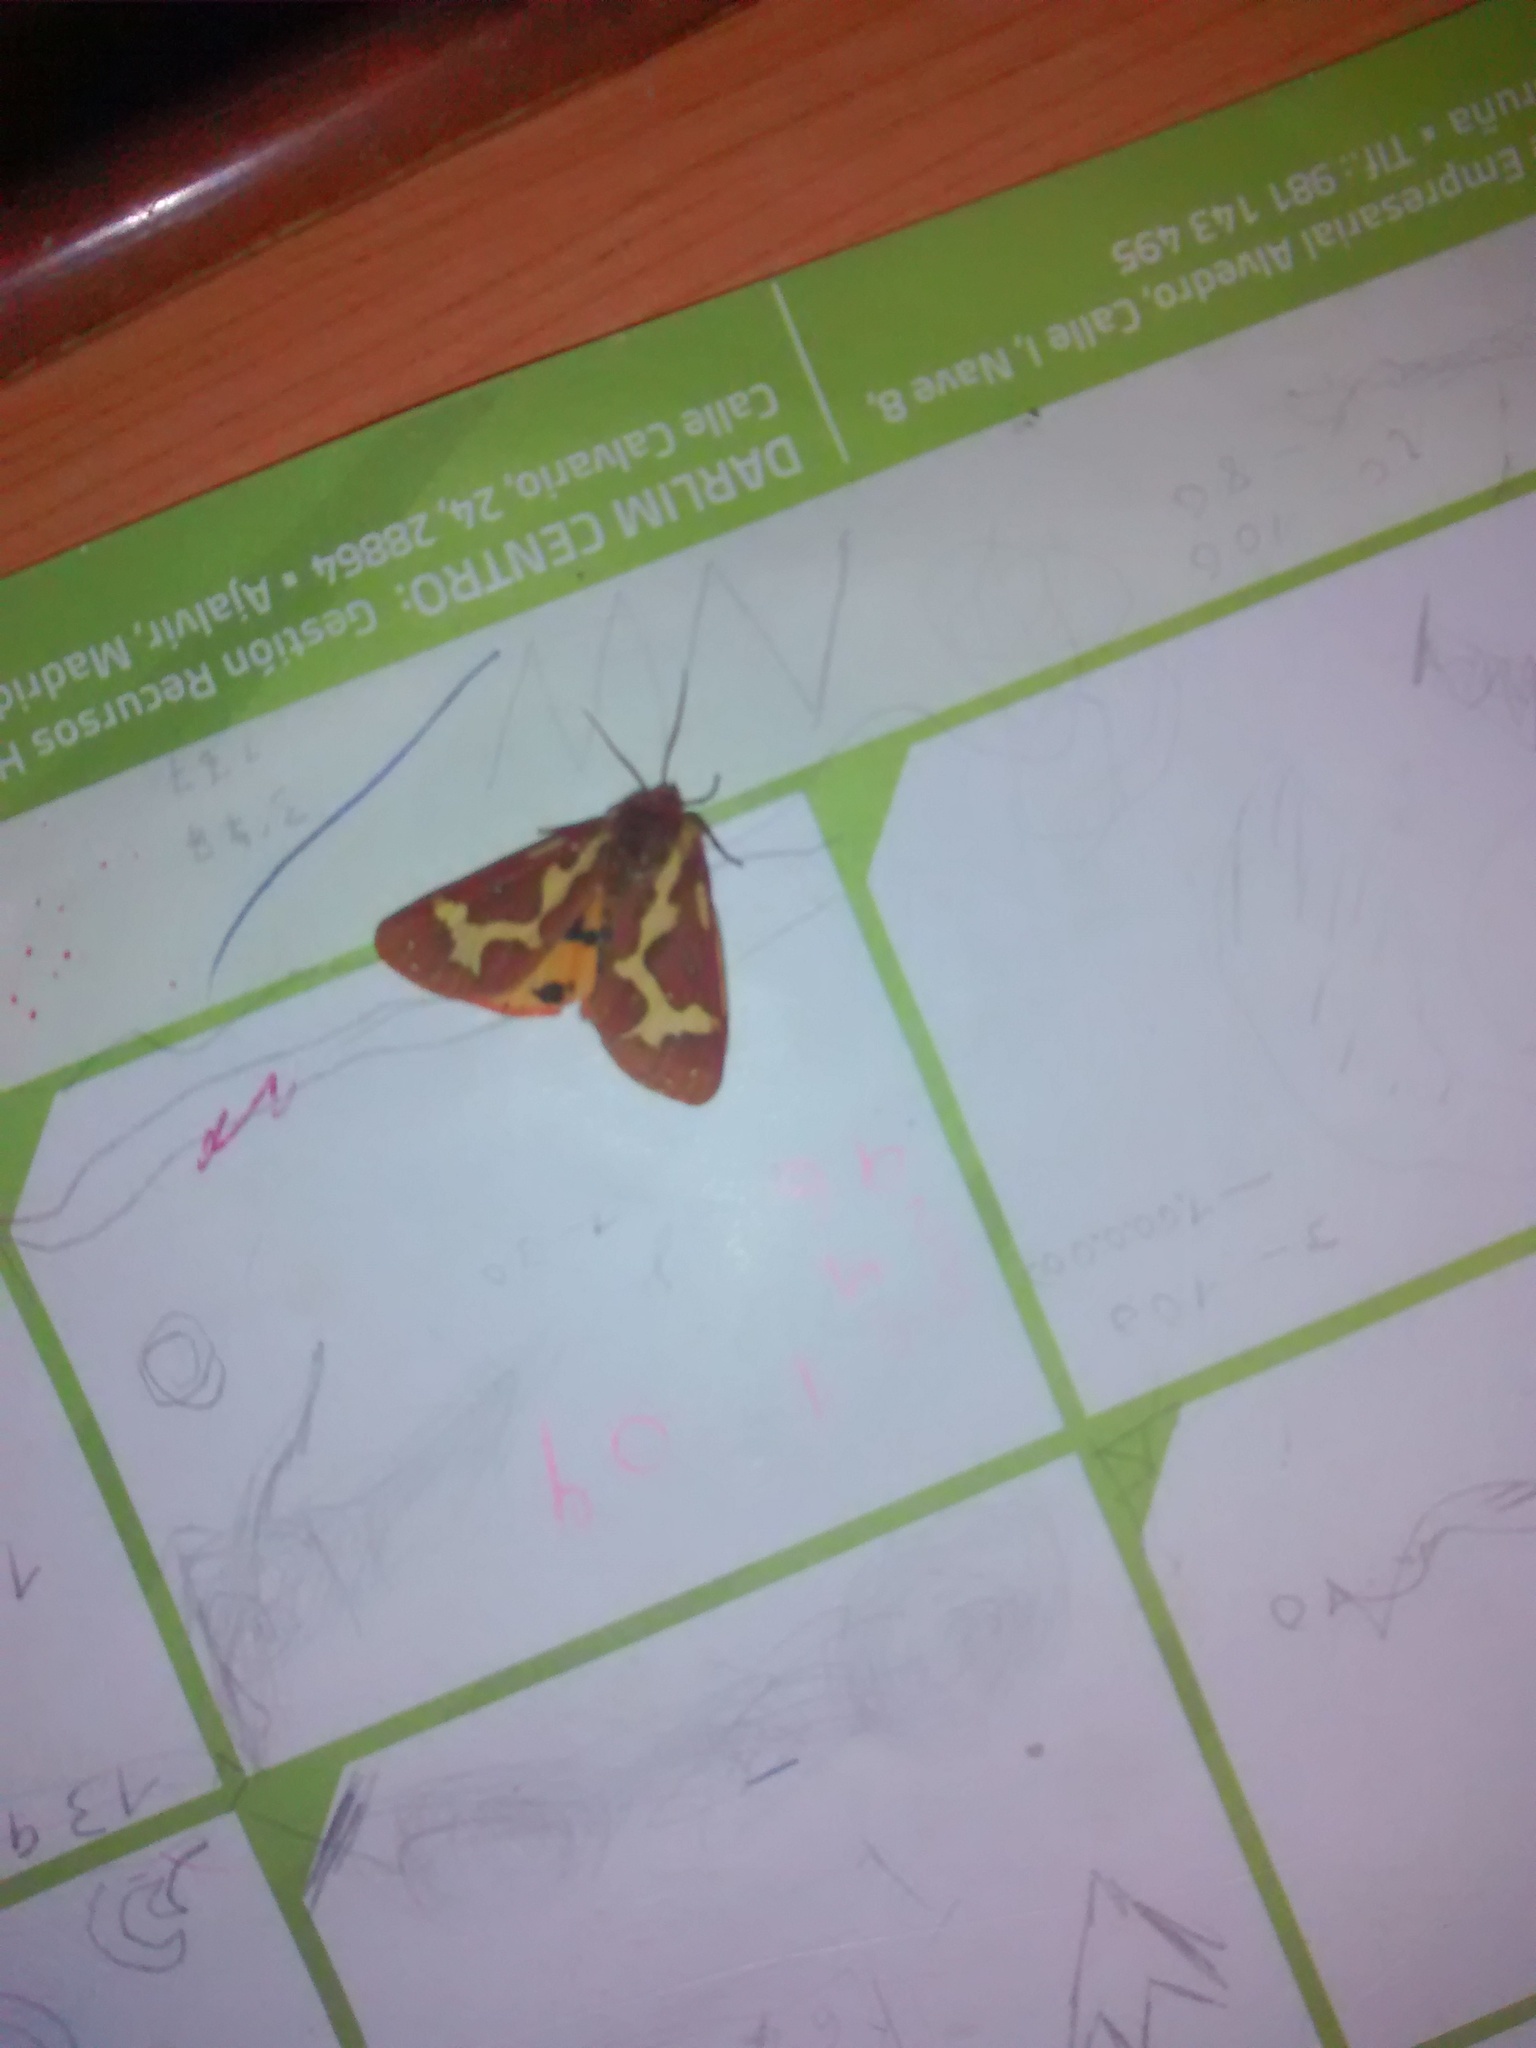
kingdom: Animalia
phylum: Arthropoda
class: Insecta
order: Lepidoptera
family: Erebidae
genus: Arctia
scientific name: Arctia dejeani
